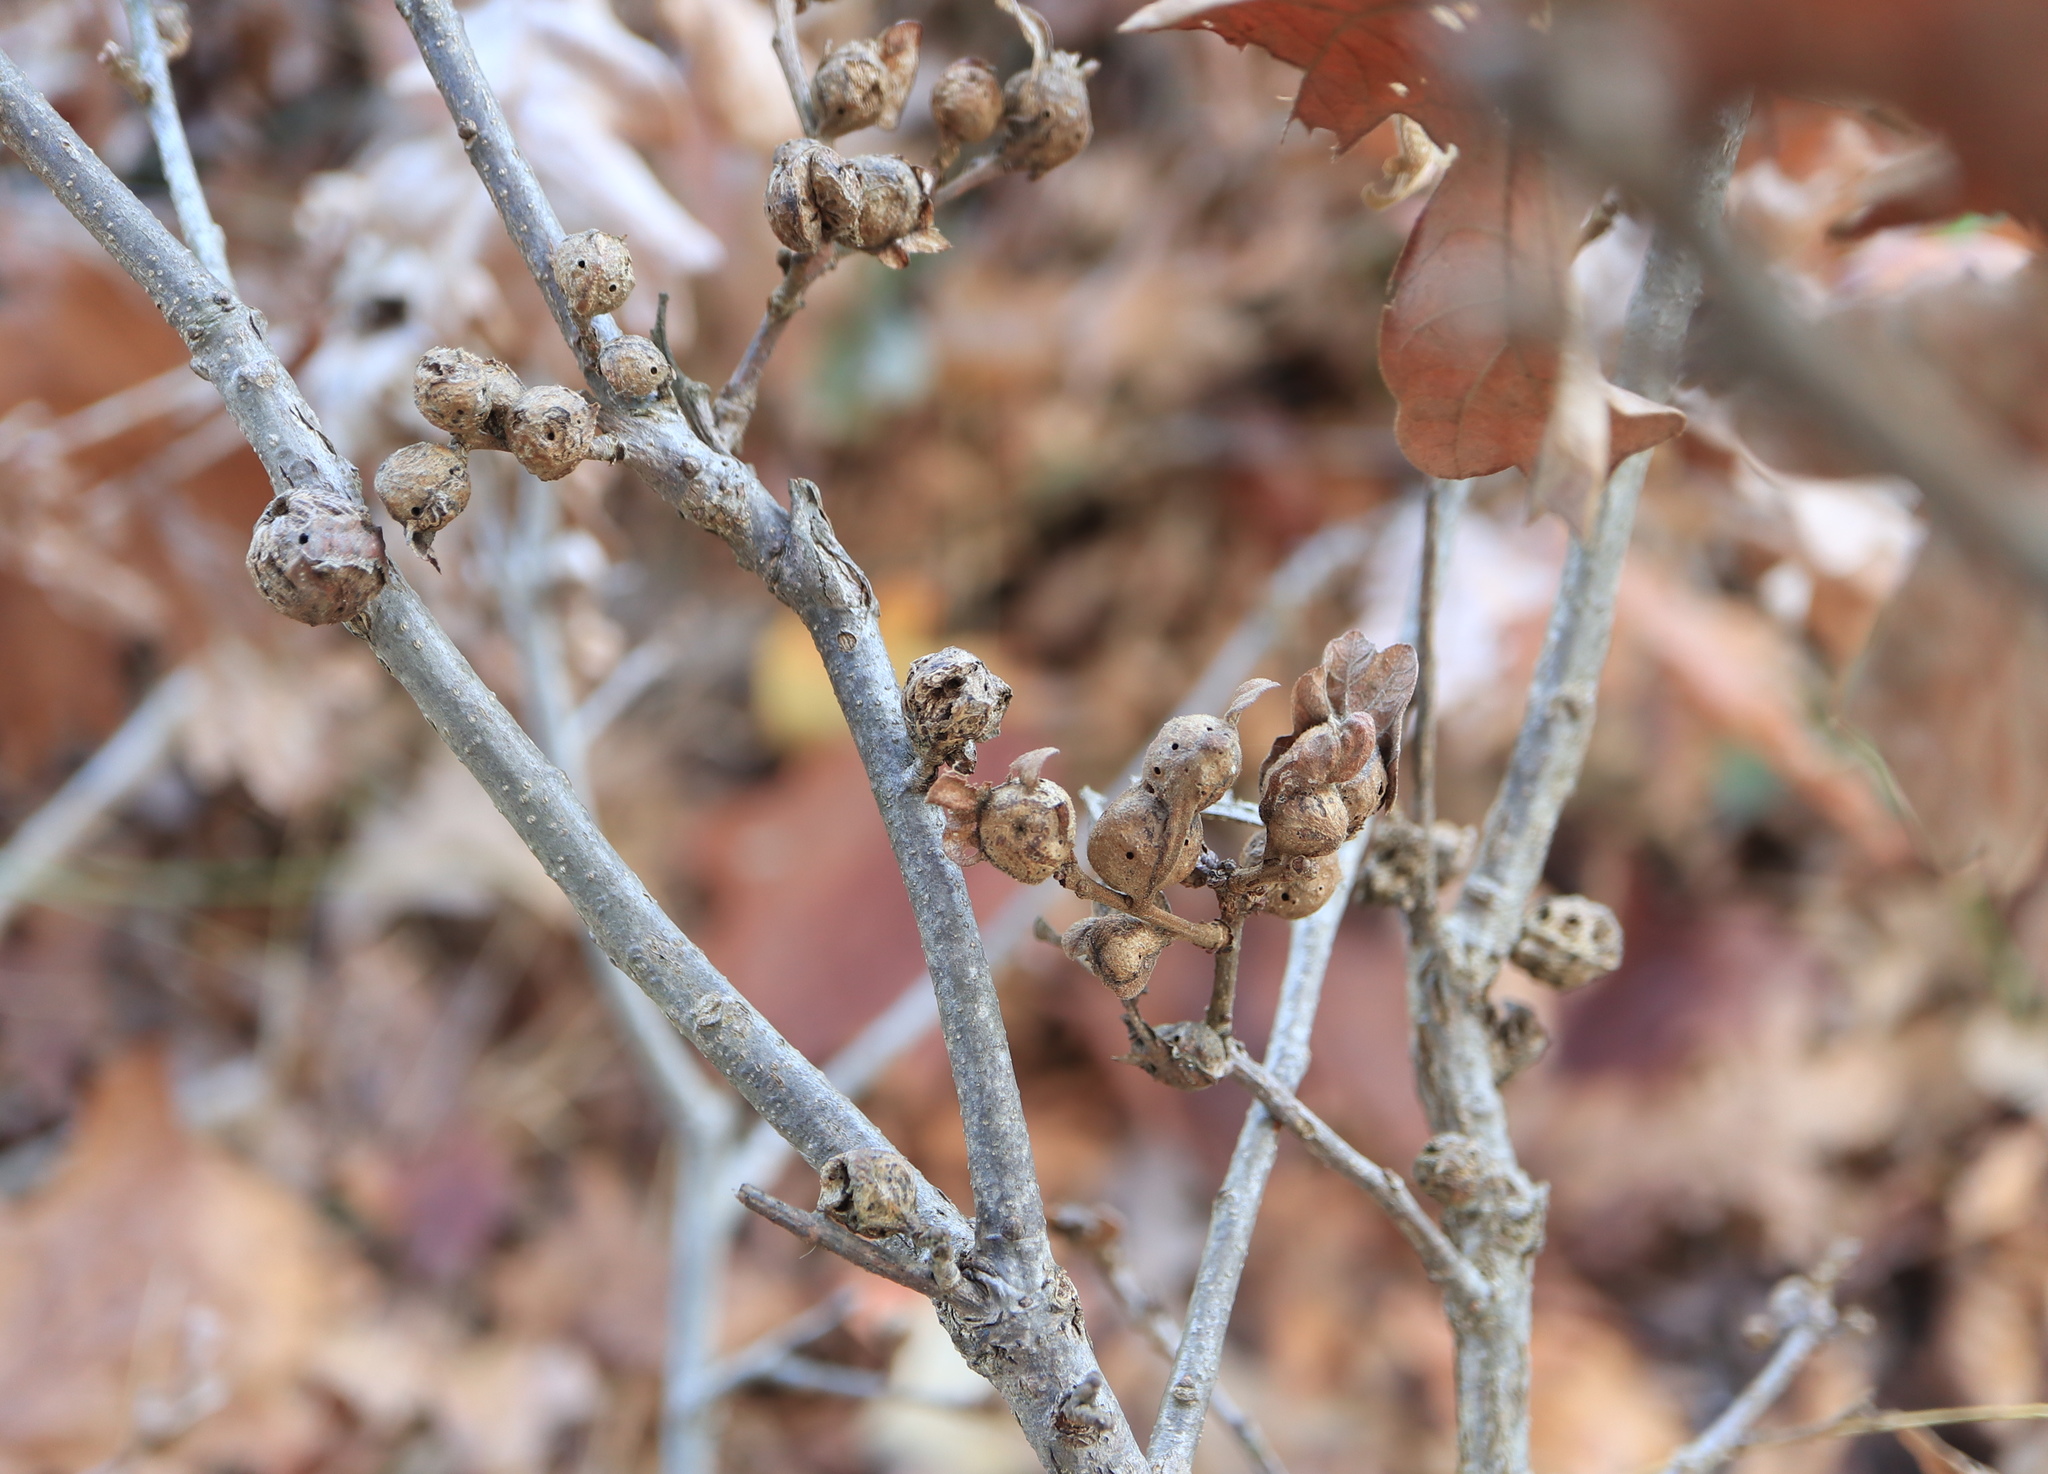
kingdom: Animalia
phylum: Arthropoda
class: Insecta
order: Hymenoptera
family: Cynipidae
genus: Andricus
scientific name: Andricus
